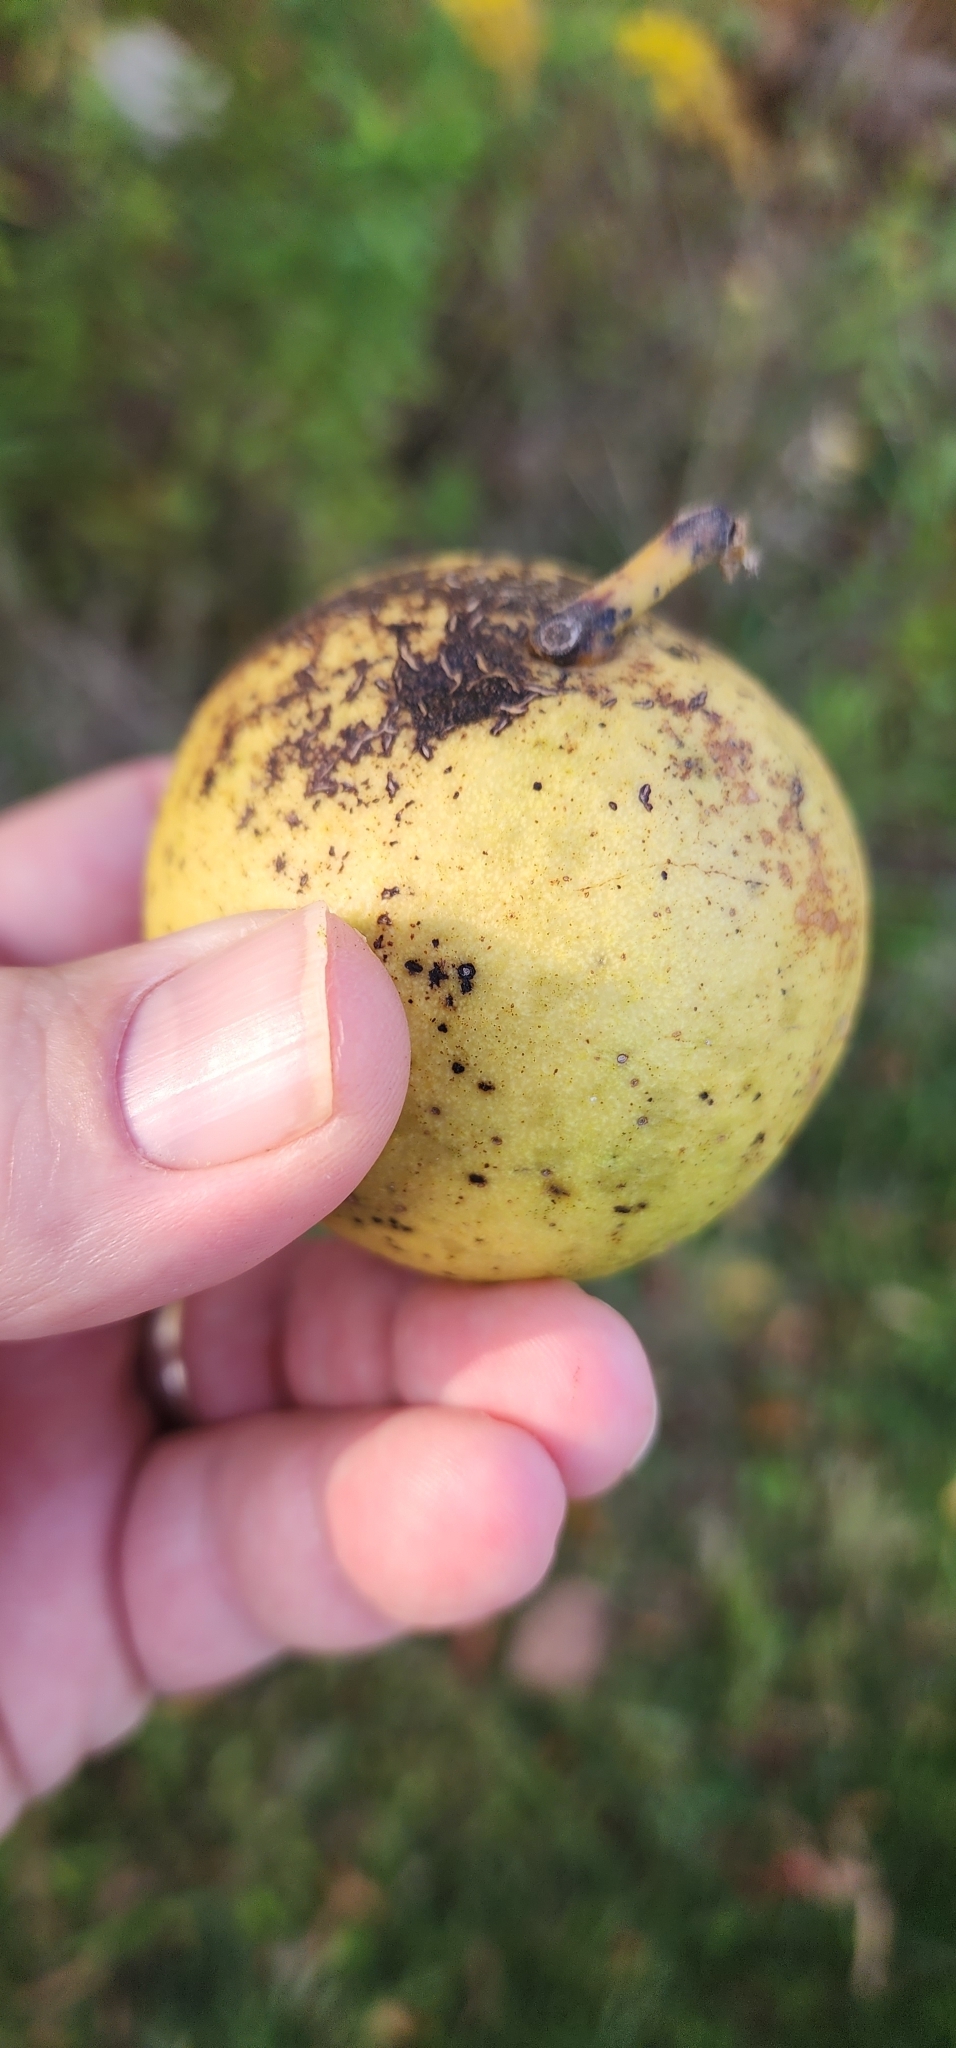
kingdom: Plantae
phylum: Tracheophyta
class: Magnoliopsida
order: Fagales
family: Juglandaceae
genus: Juglans
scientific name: Juglans nigra
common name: Black walnut
